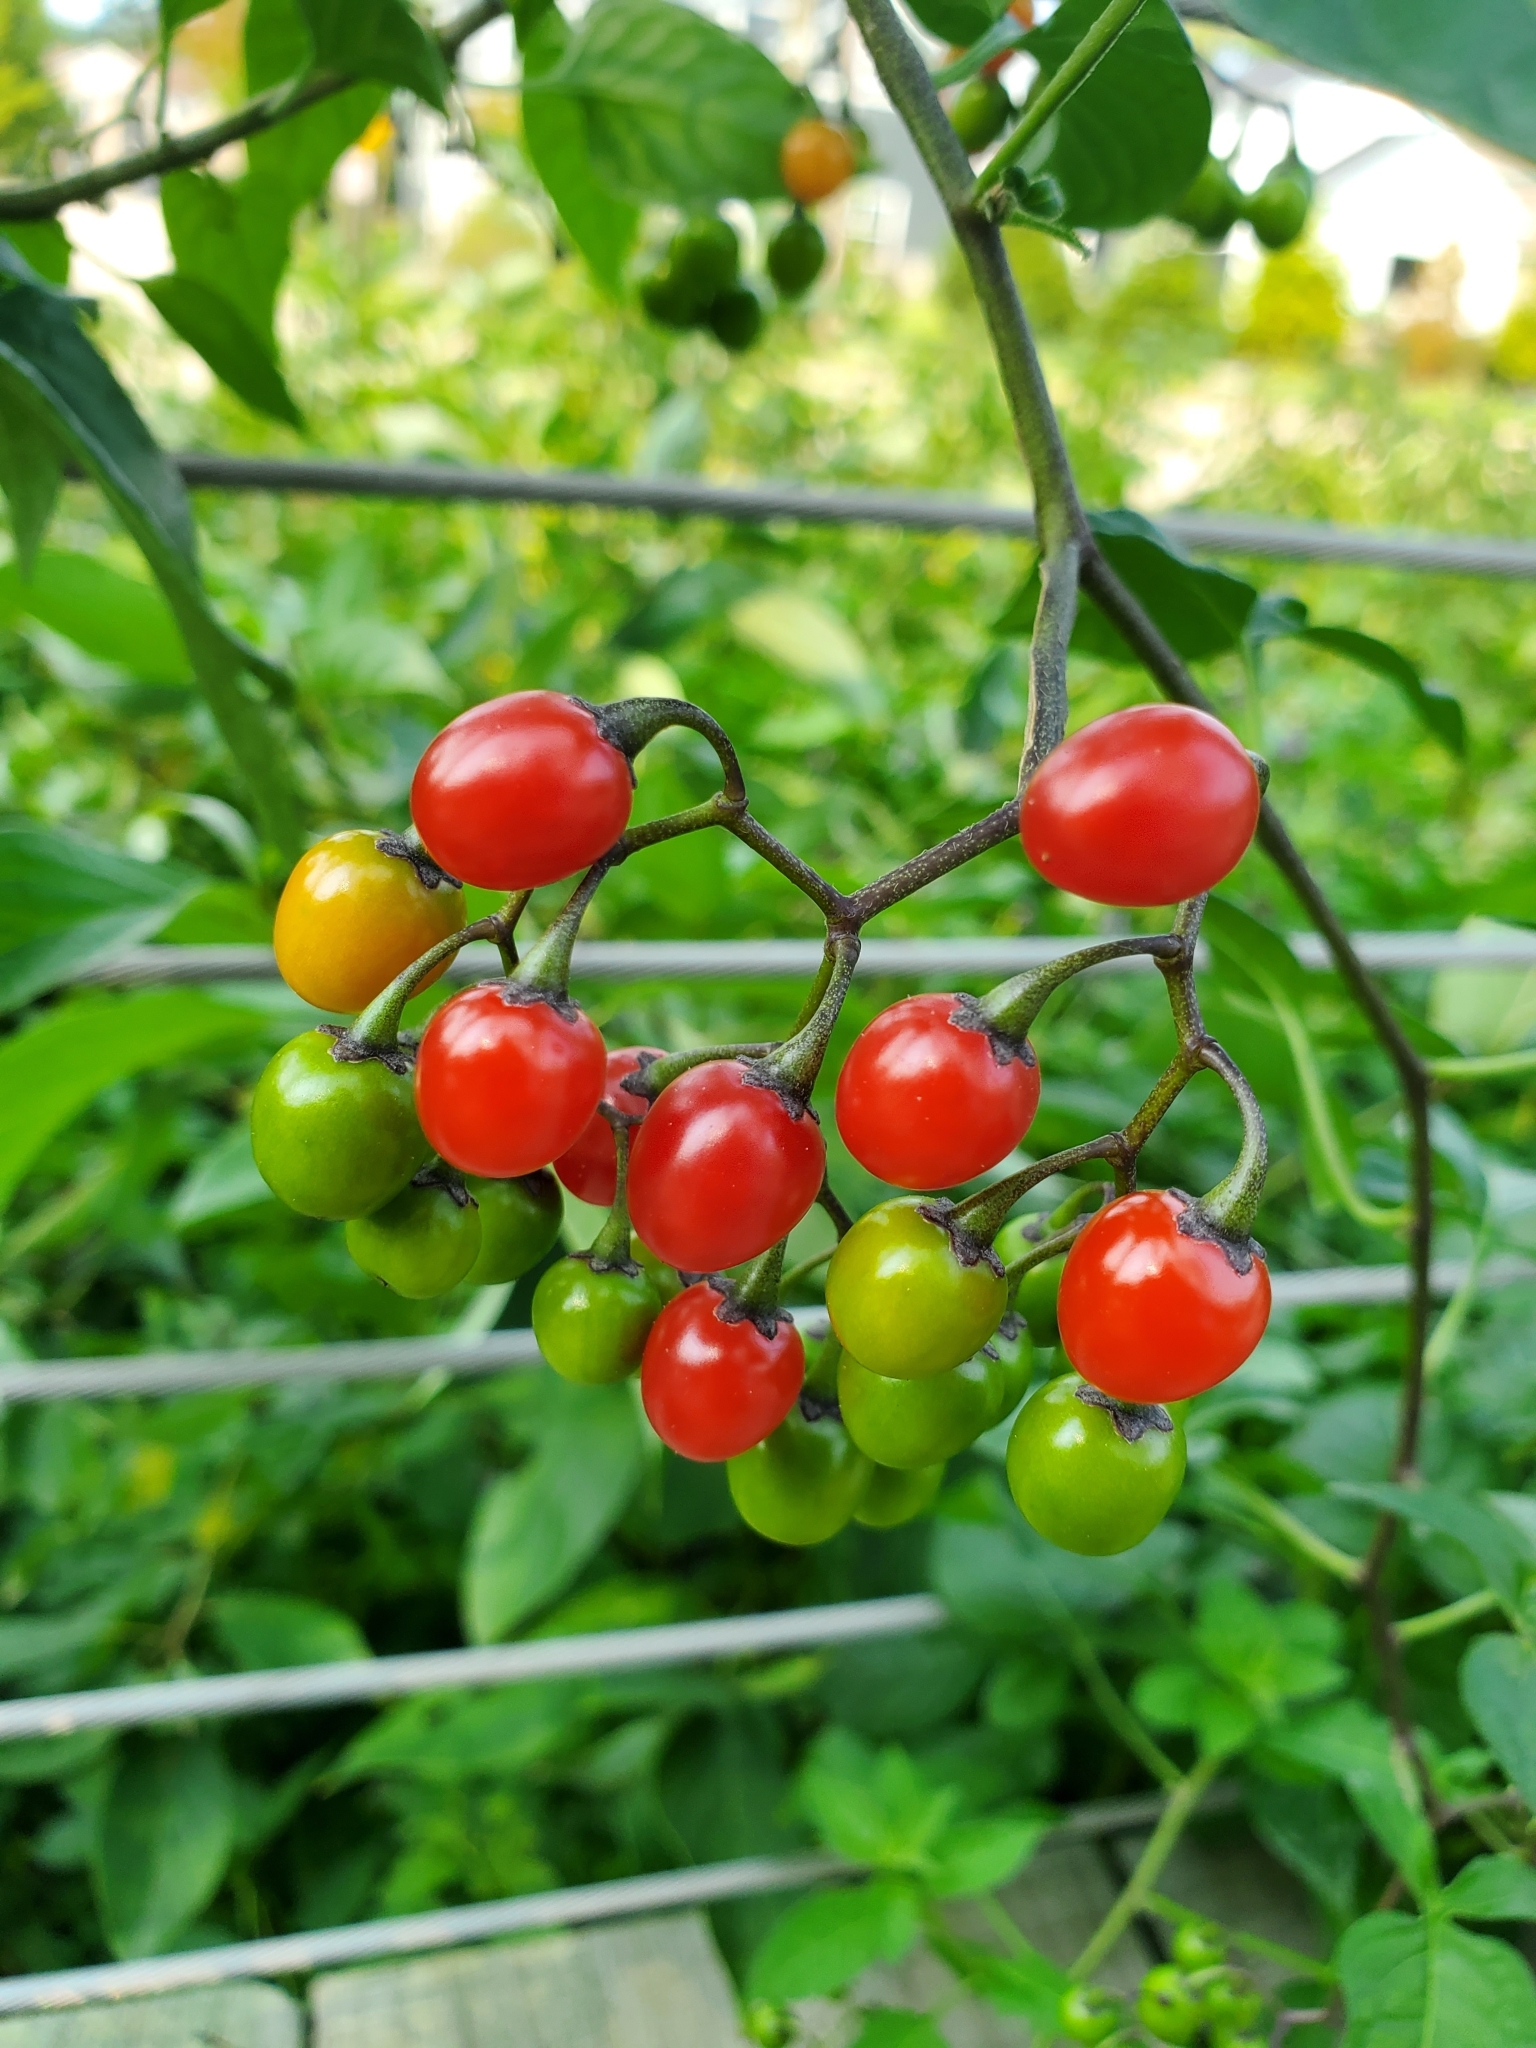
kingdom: Plantae
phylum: Tracheophyta
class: Magnoliopsida
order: Solanales
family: Solanaceae
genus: Solanum
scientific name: Solanum dulcamara
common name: Climbing nightshade
